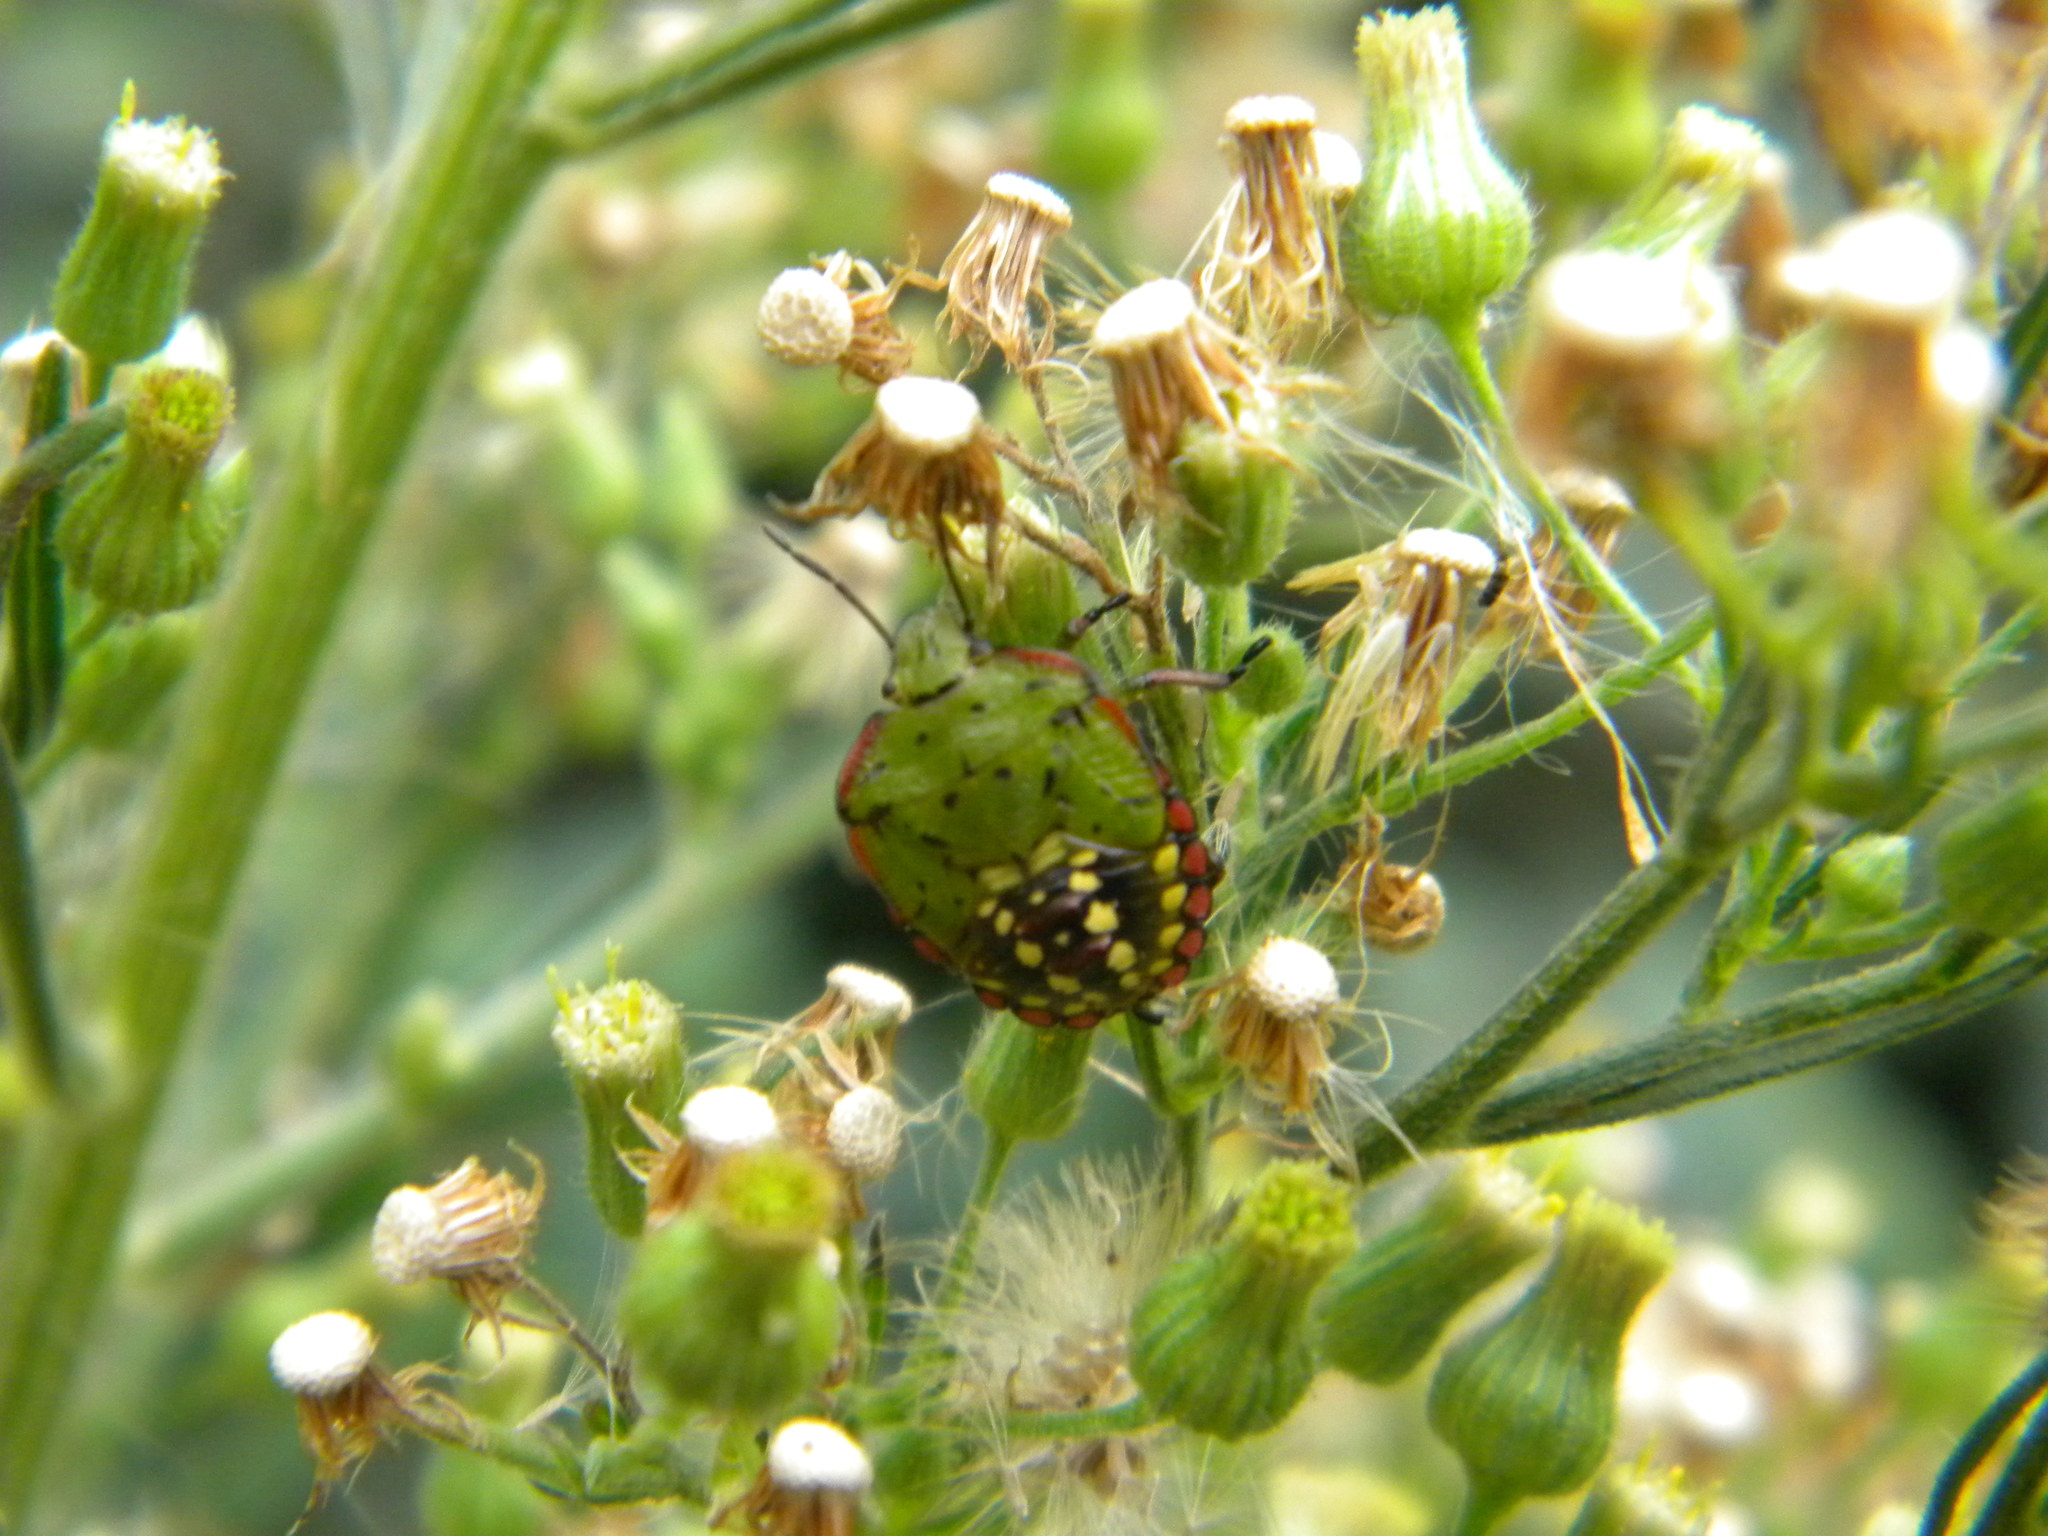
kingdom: Animalia
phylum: Arthropoda
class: Insecta
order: Hemiptera
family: Pentatomidae
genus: Nezara
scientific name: Nezara viridula
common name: Southern green stink bug
